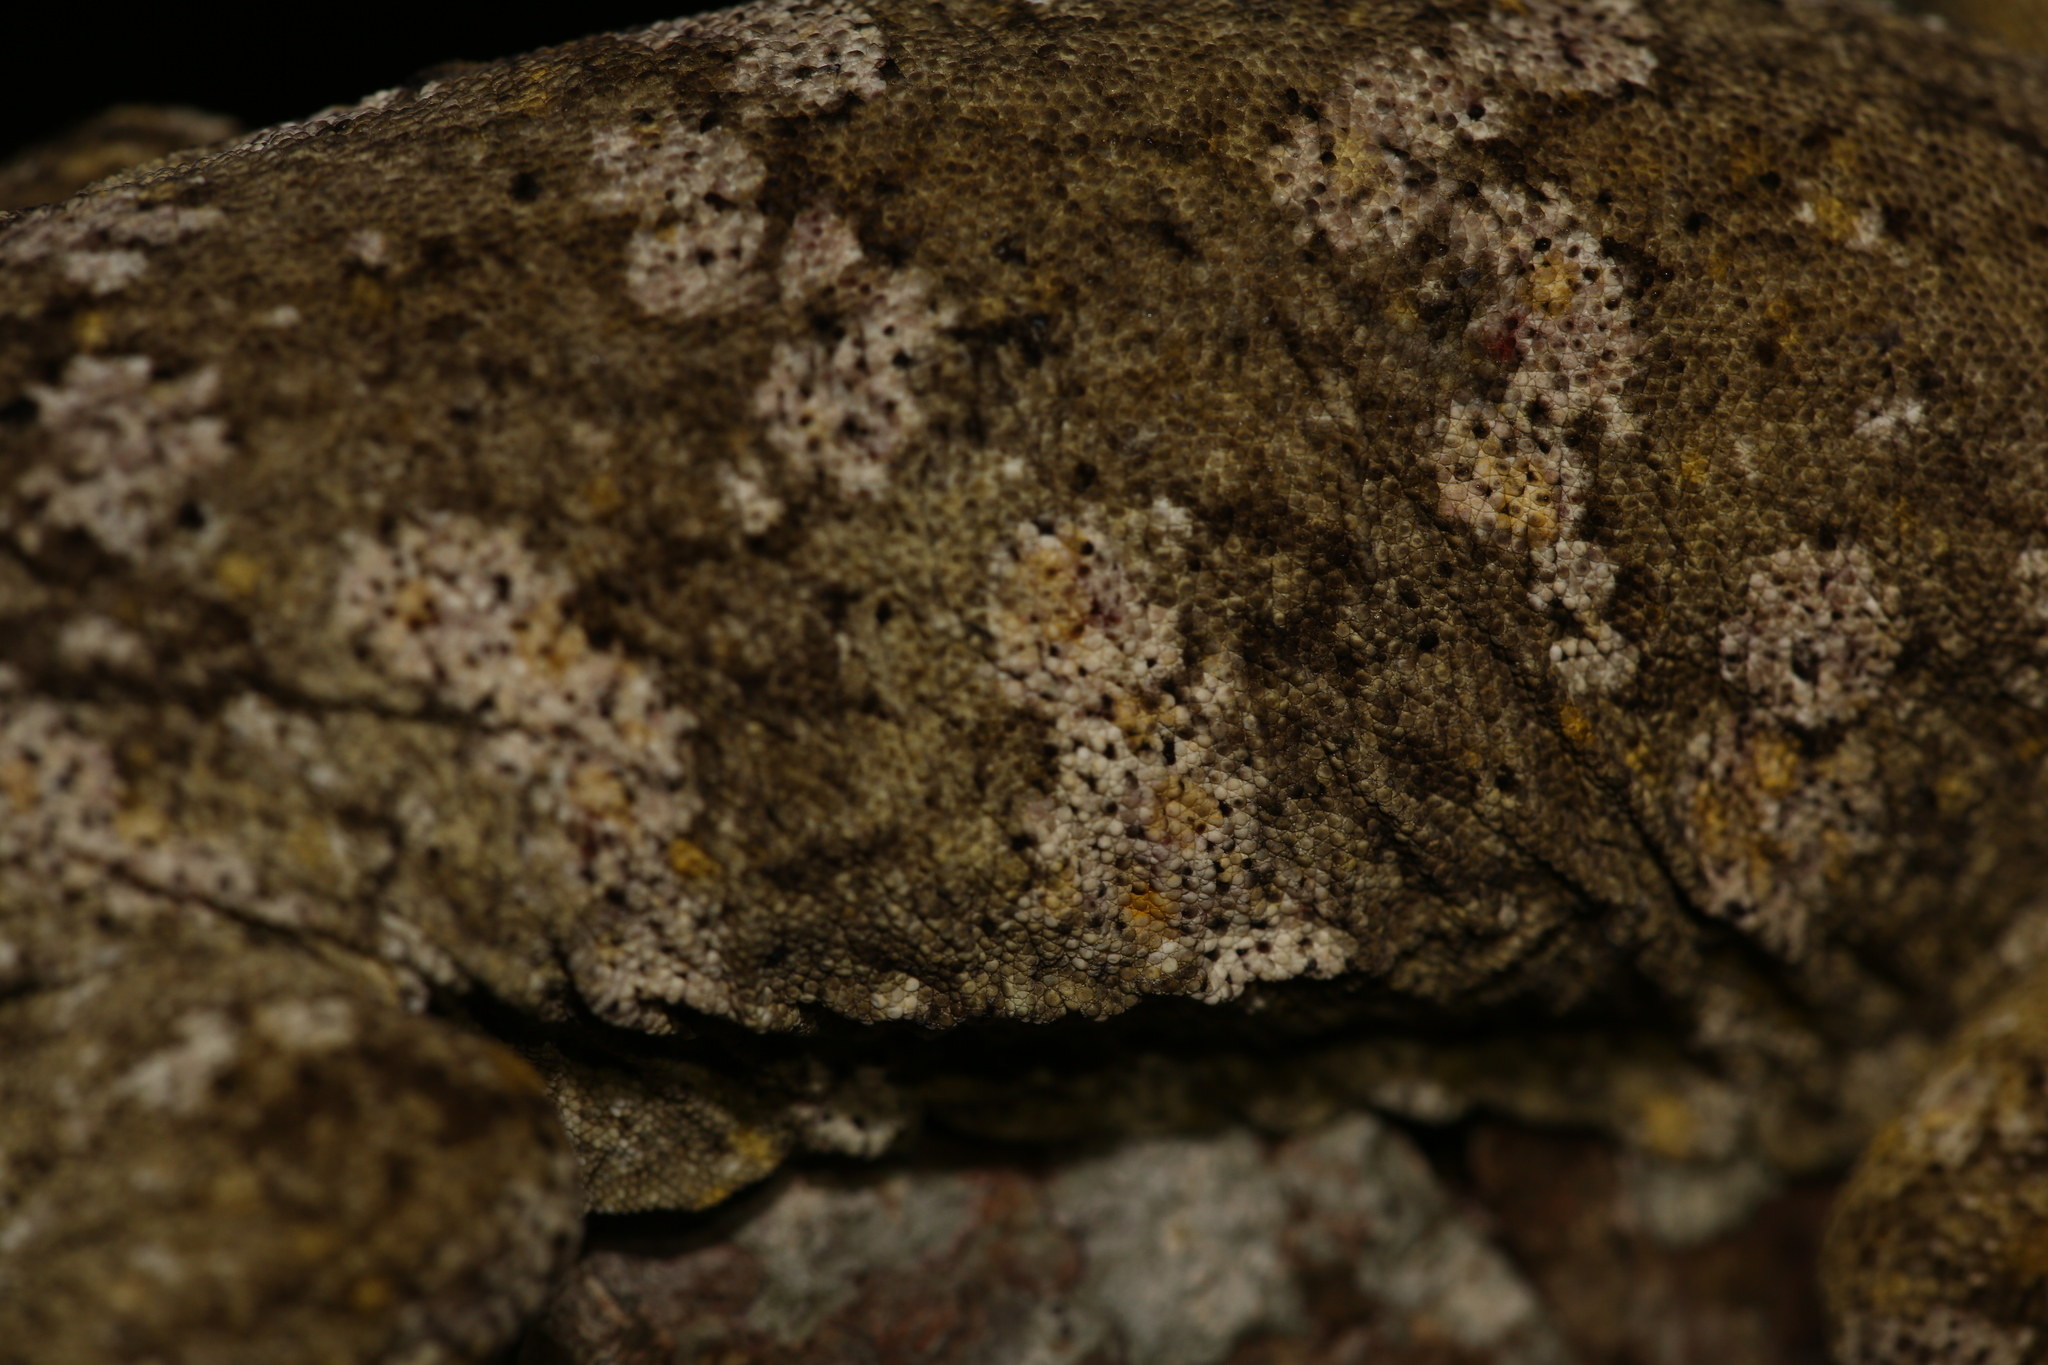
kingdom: Animalia
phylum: Chordata
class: Squamata
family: Diplodactylidae
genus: Rhacodactylus
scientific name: Rhacodactylus leachianus
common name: New caledonia giant gecko
